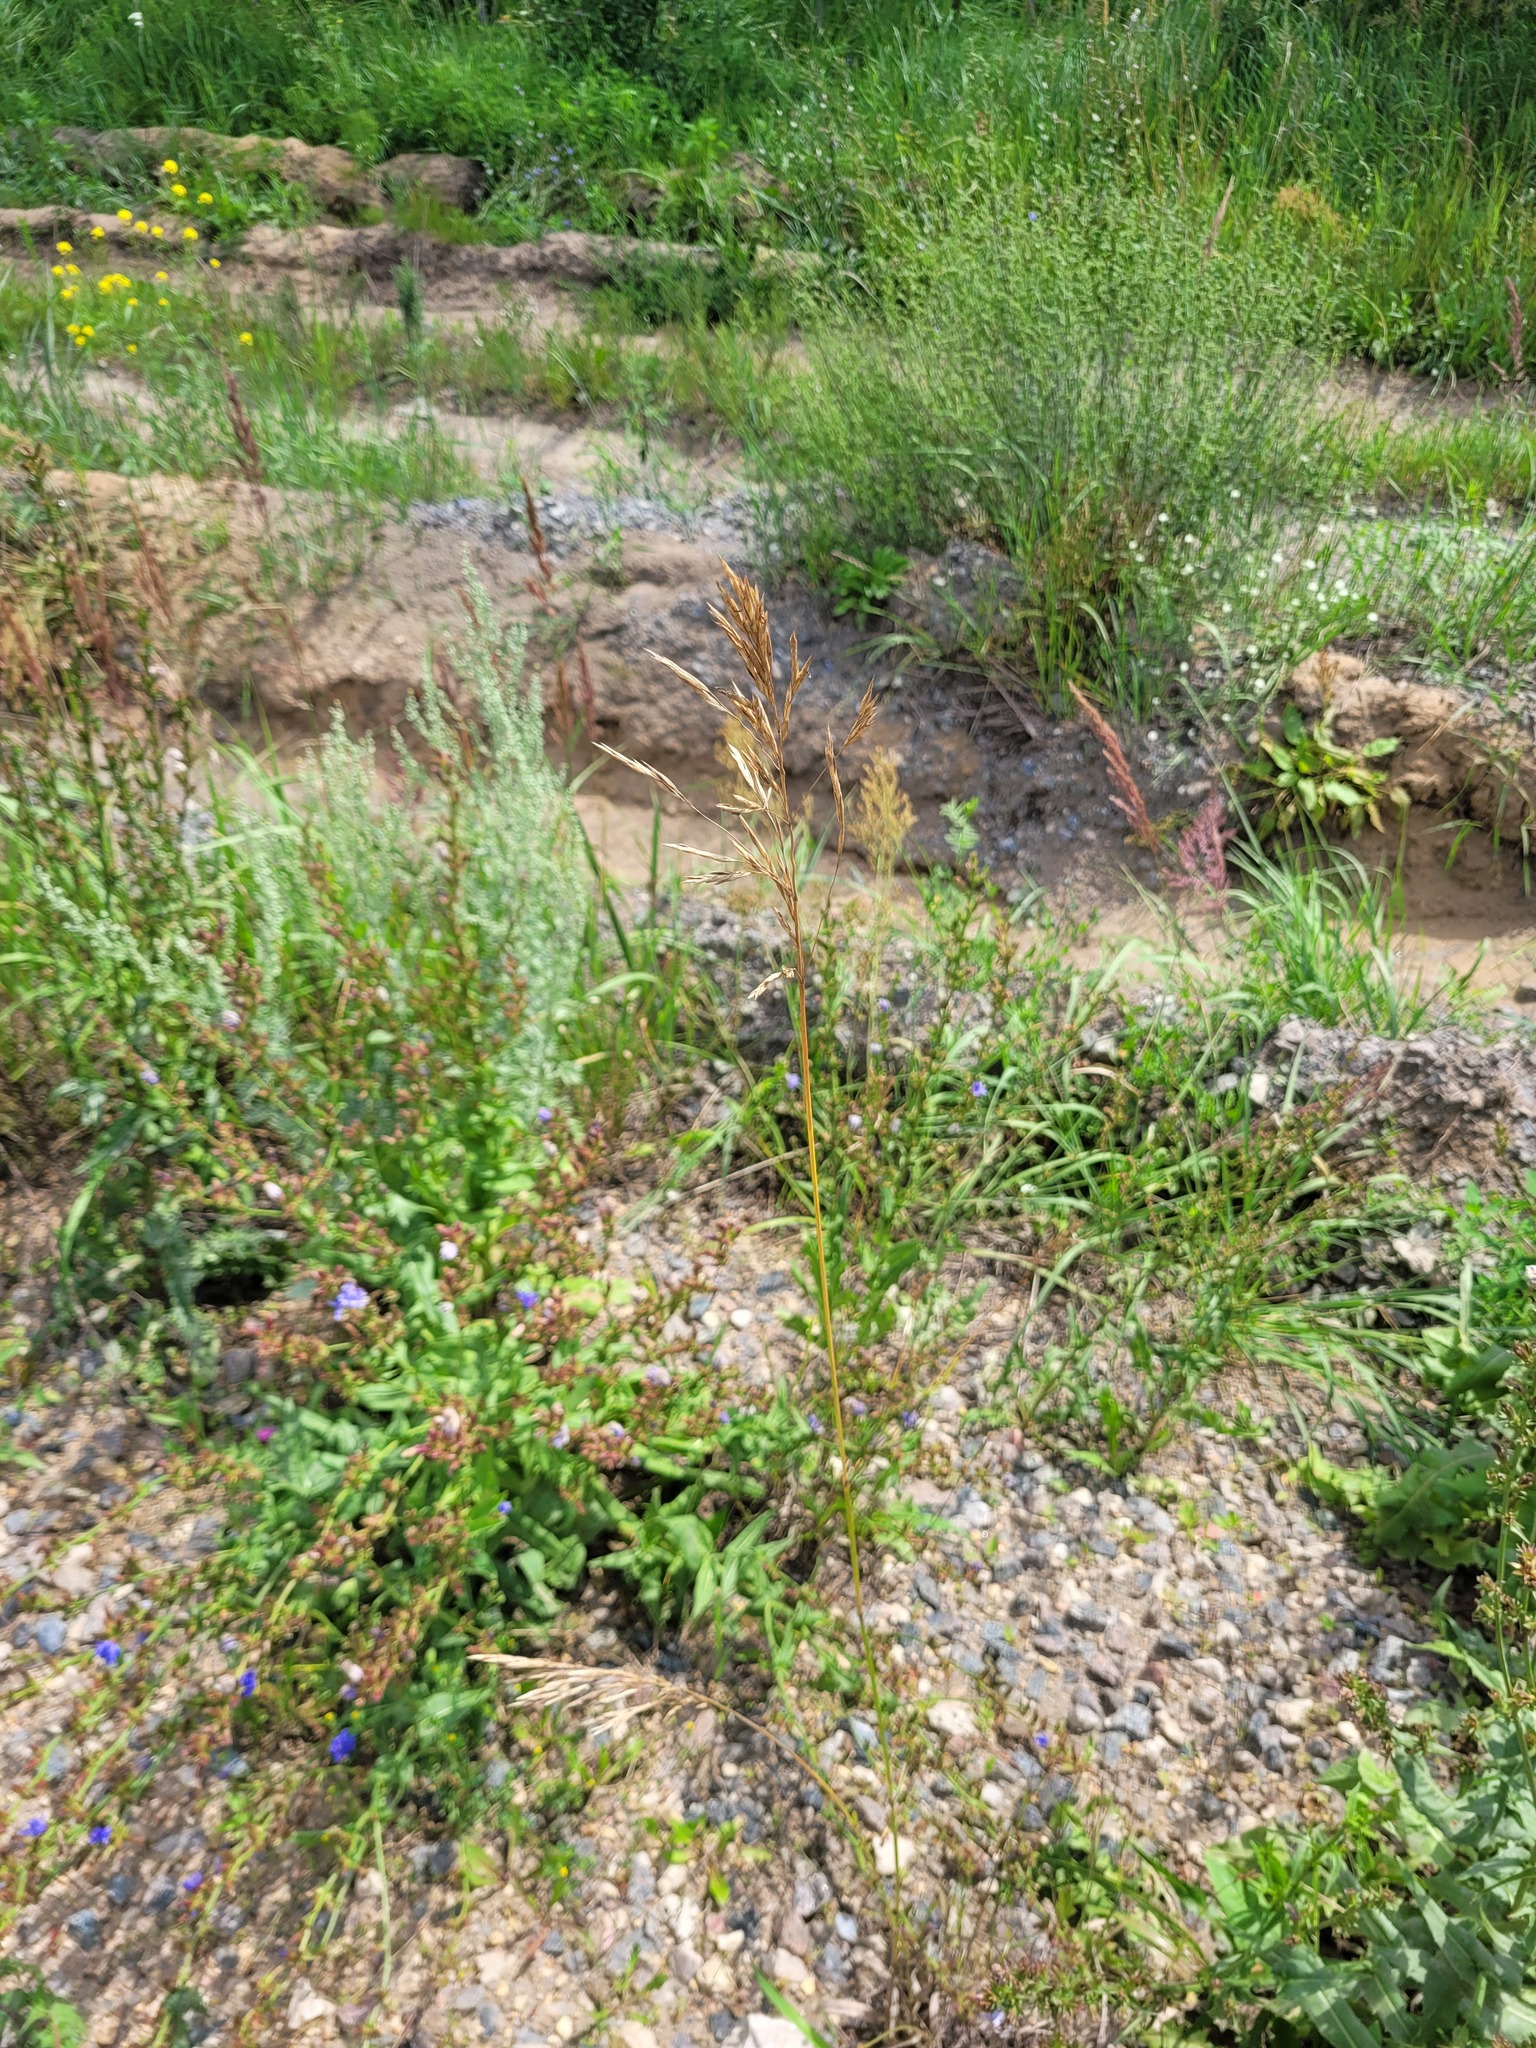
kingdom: Plantae
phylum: Tracheophyta
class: Liliopsida
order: Poales
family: Poaceae
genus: Bromus
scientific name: Bromus inermis
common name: Smooth brome
